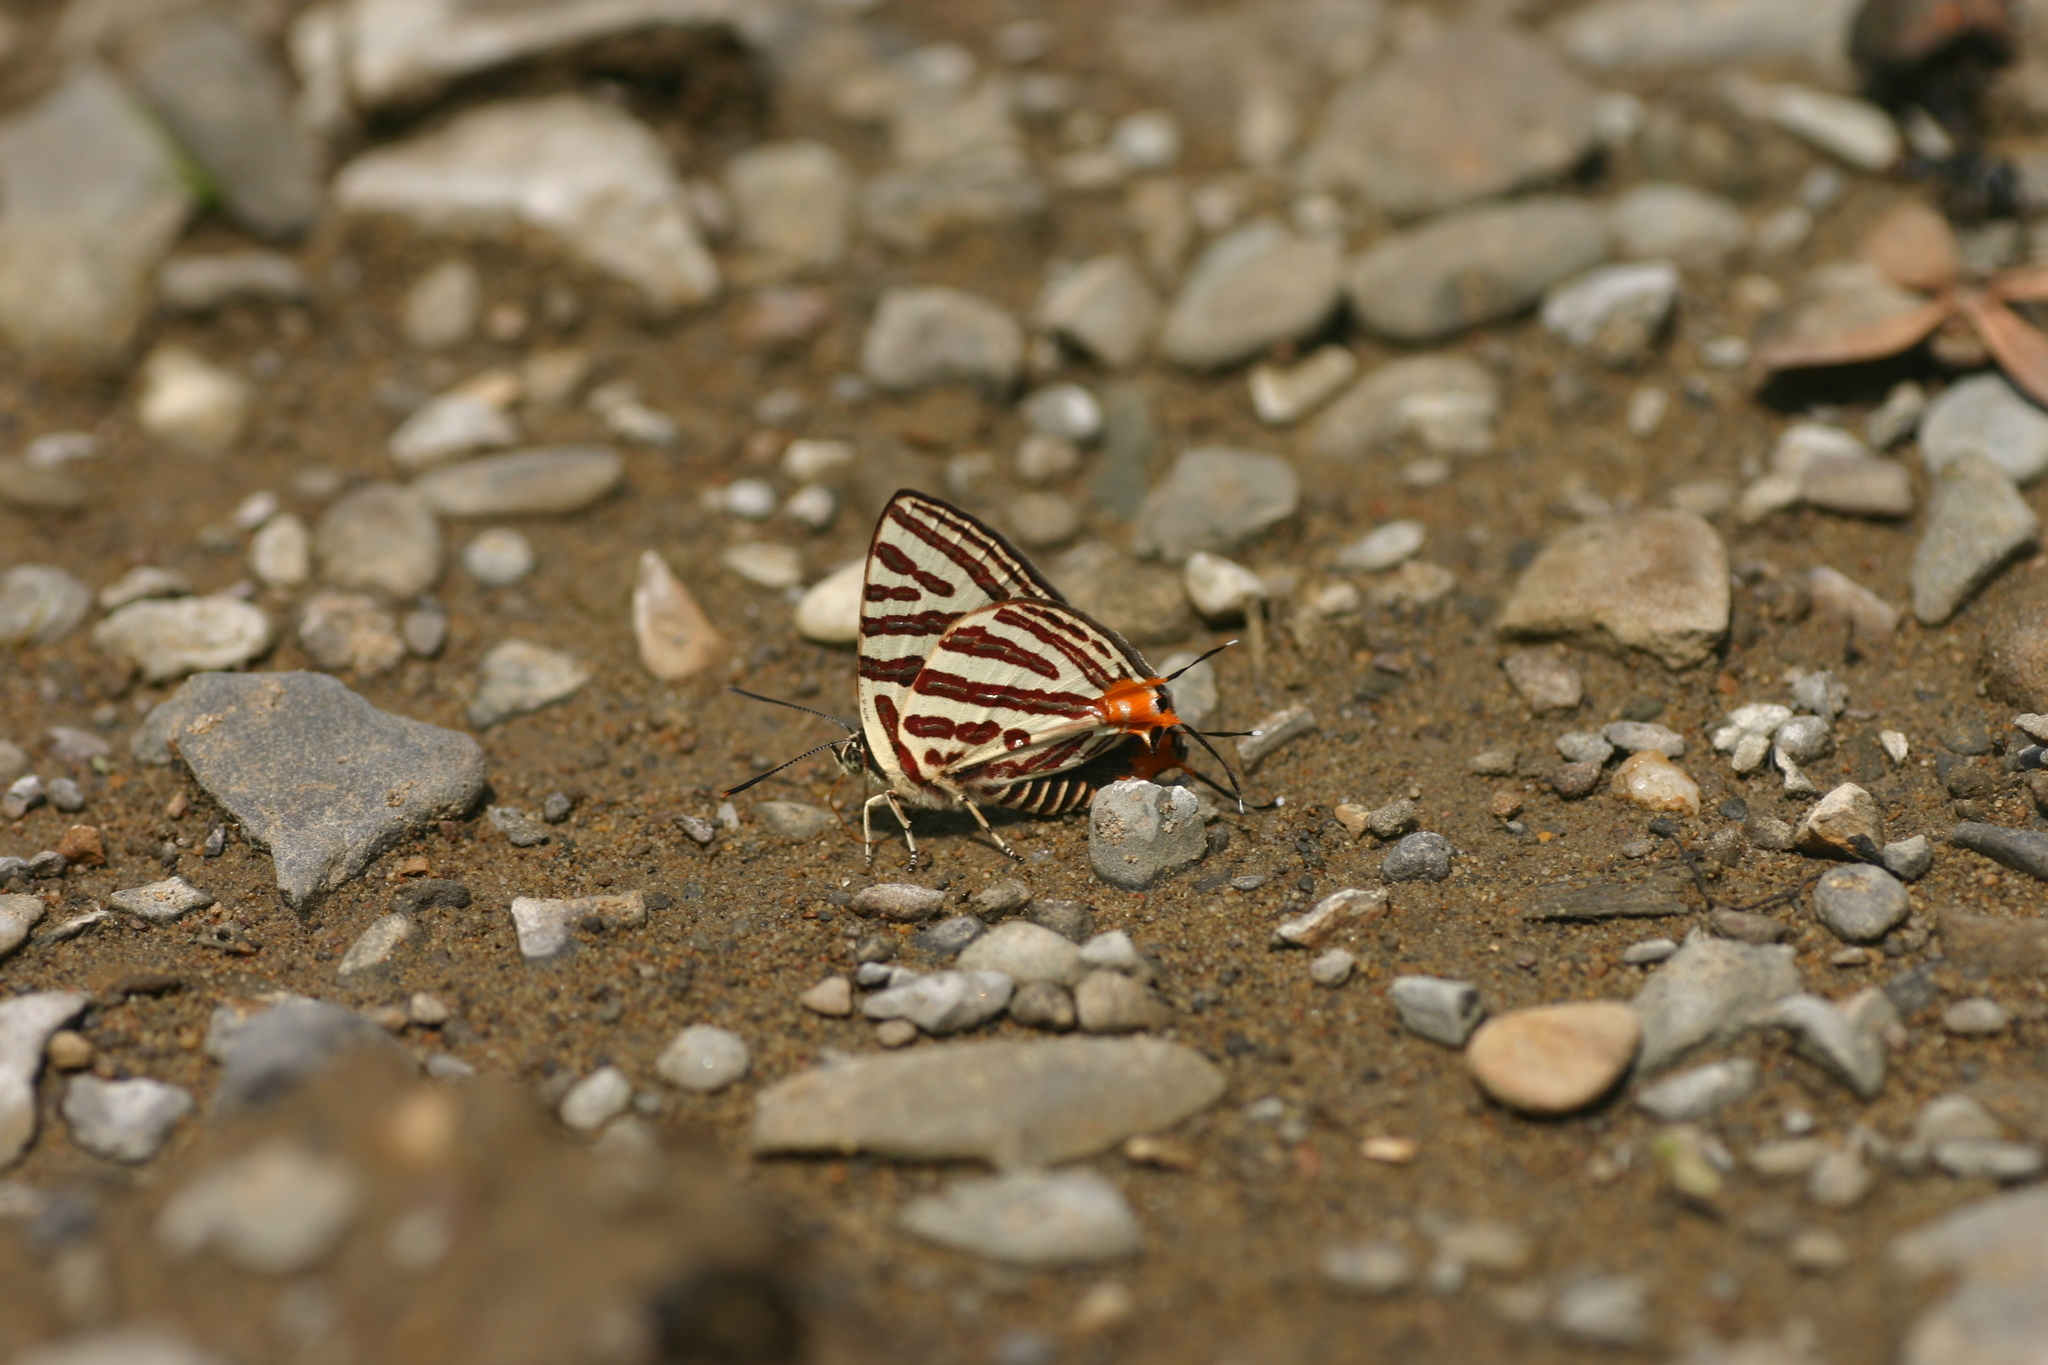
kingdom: Animalia
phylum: Arthropoda
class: Insecta
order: Lepidoptera
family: Lycaenidae
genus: Cigaritis
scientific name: Cigaritis lohita
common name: Long-banded silverline
